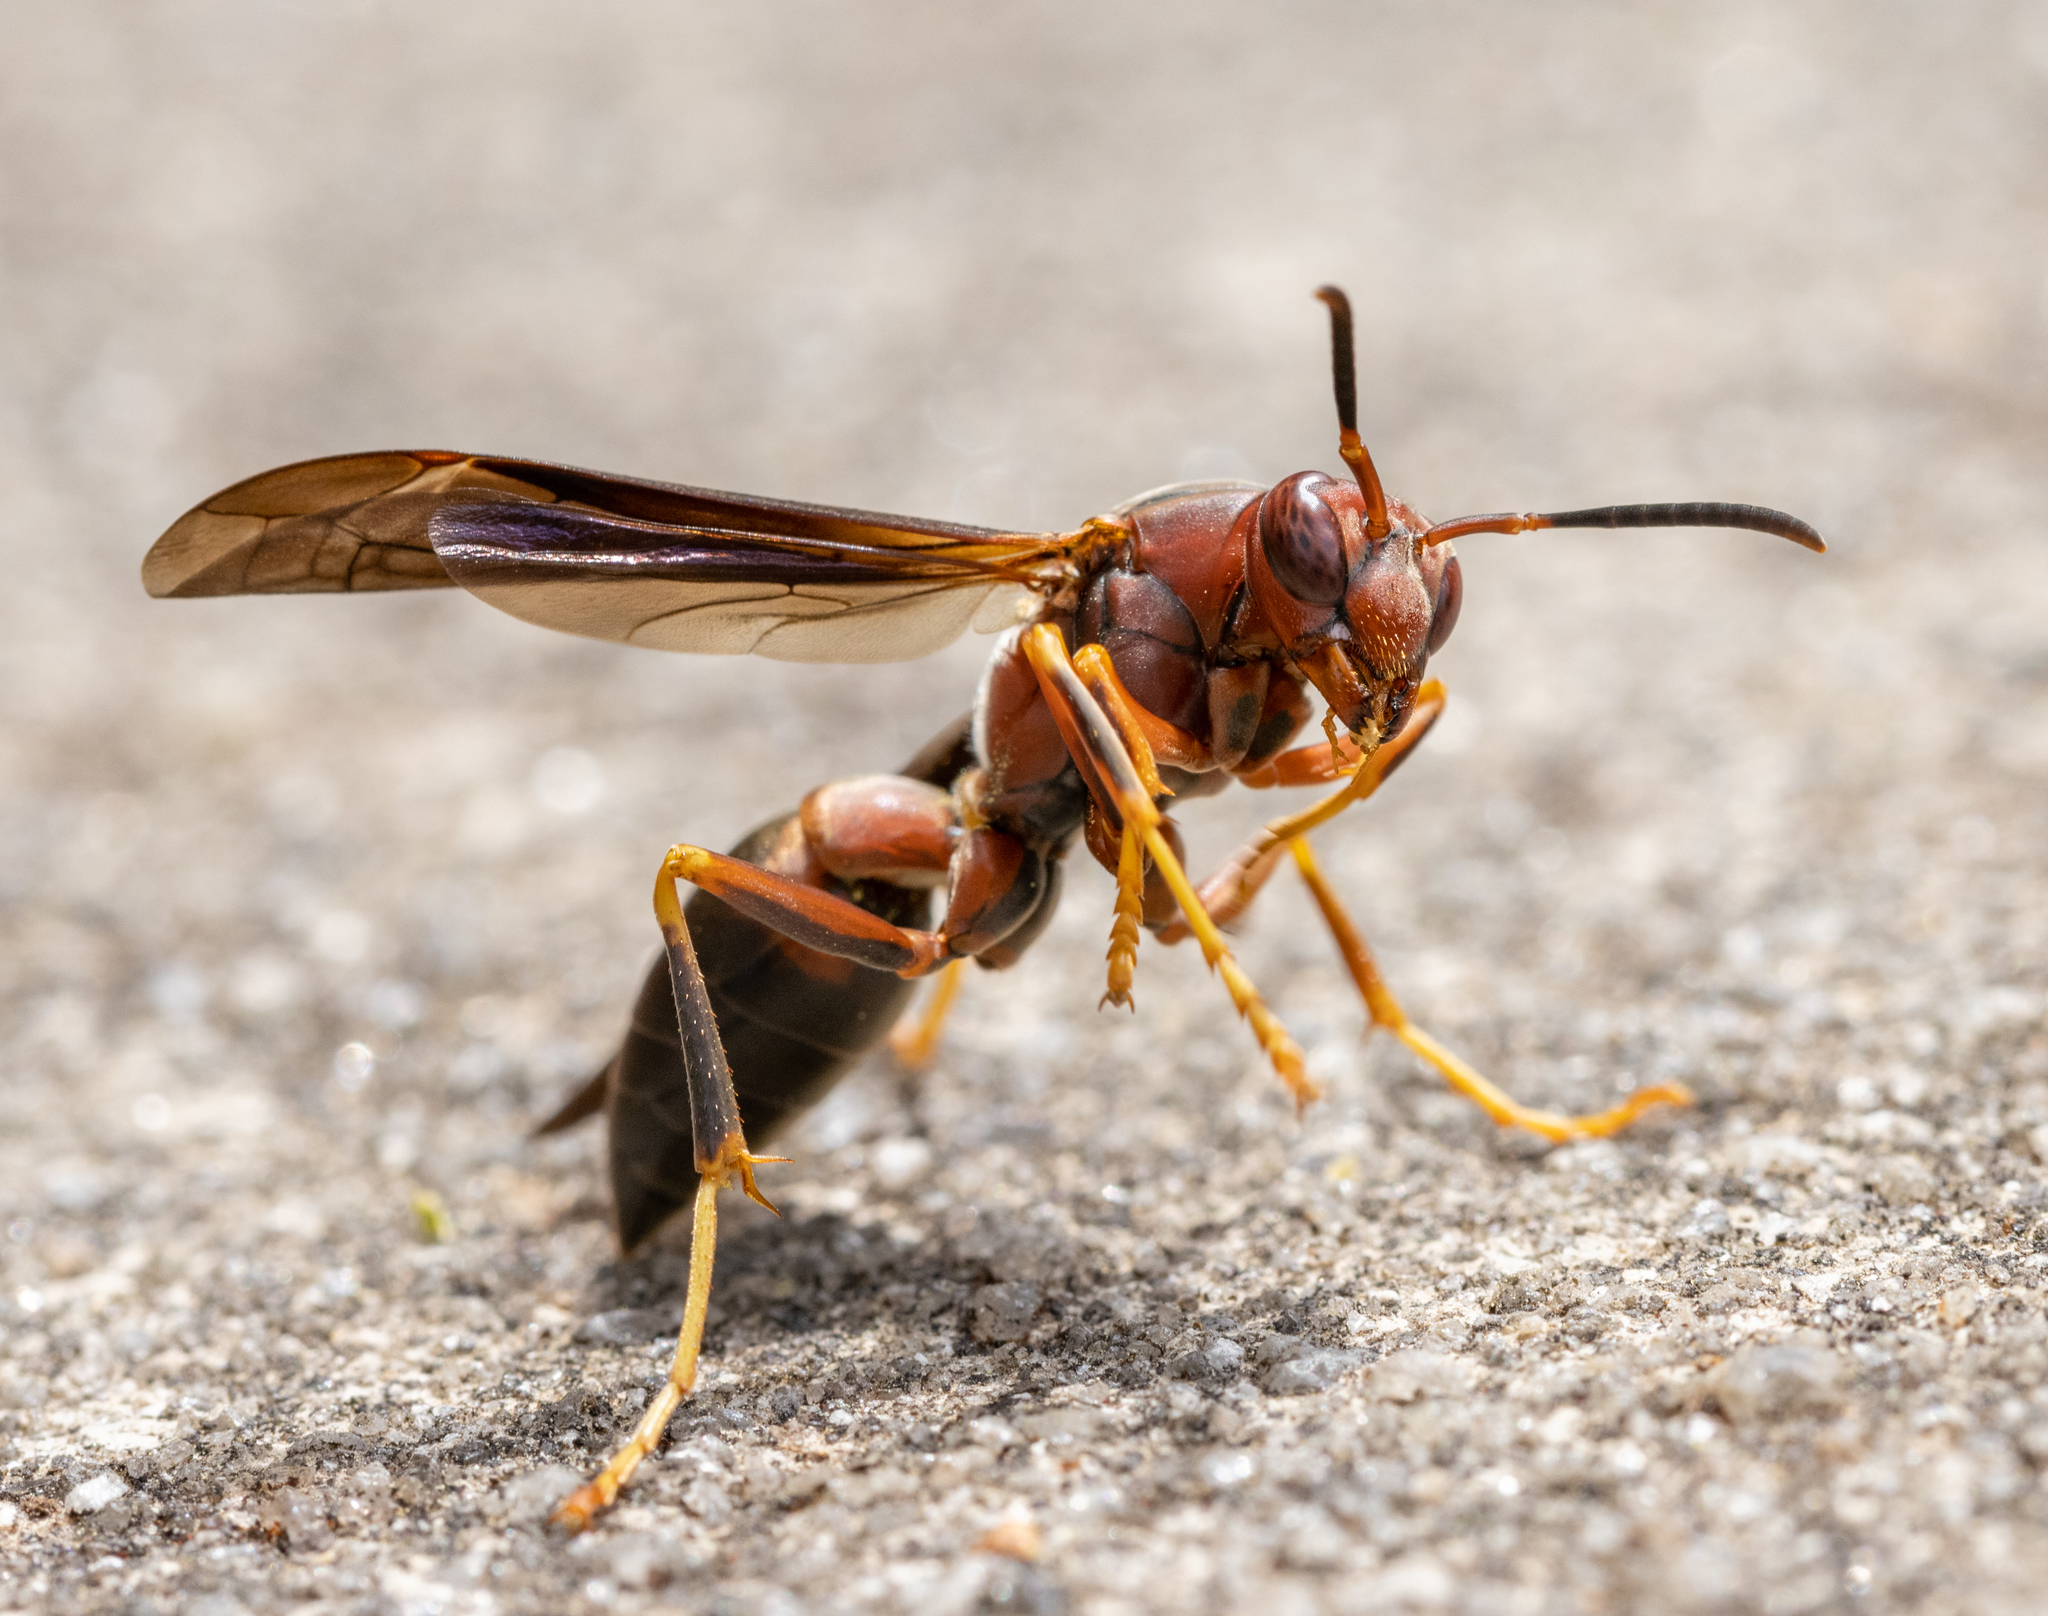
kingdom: Animalia
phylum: Arthropoda
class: Insecta
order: Hymenoptera
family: Eumenidae
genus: Polistes
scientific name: Polistes metricus
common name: Metric paper wasp
